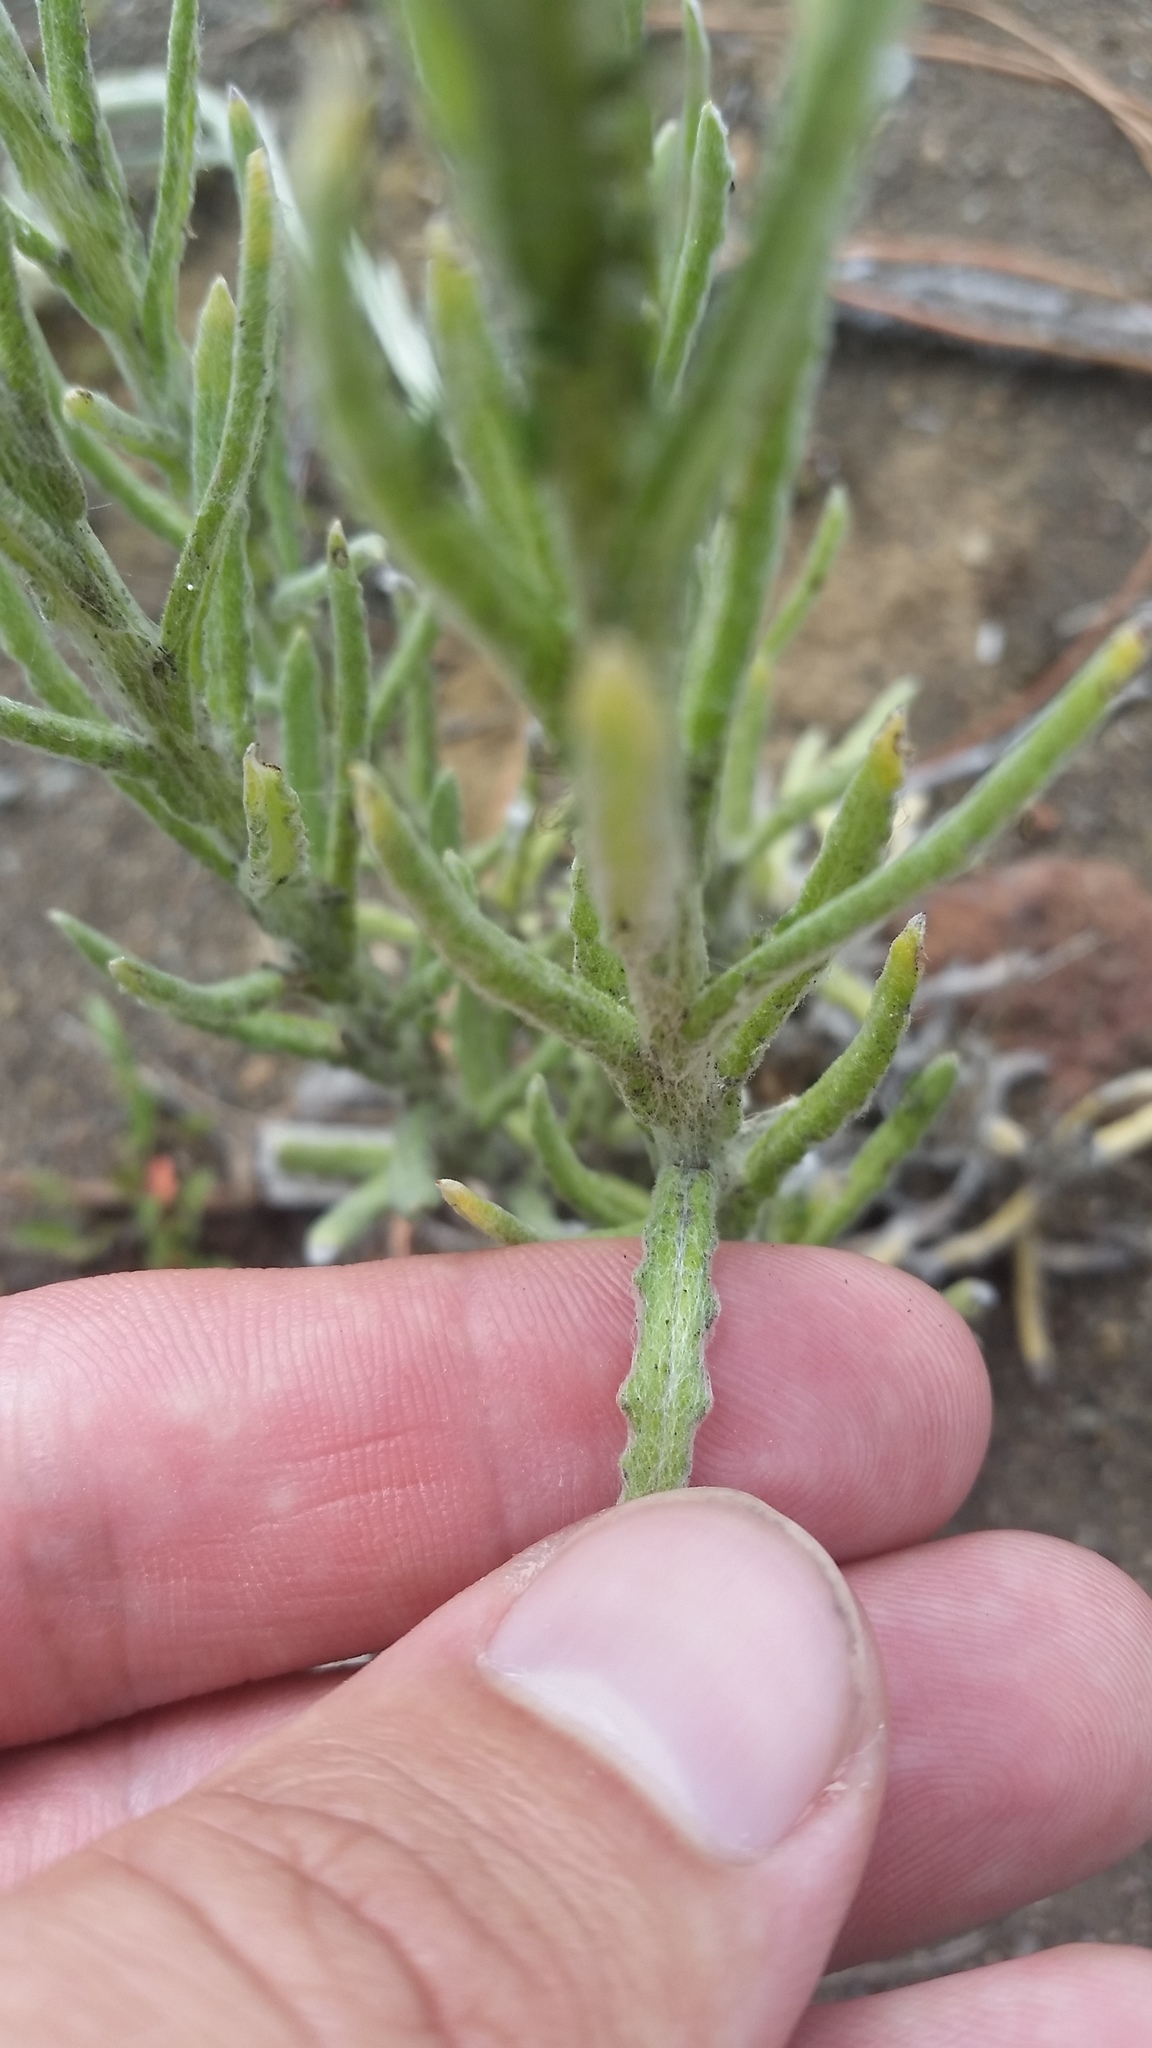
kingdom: Plantae
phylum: Tracheophyta
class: Magnoliopsida
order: Asterales
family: Asteraceae
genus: Pseudognaphalium
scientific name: Pseudognaphalium sandwicensium
